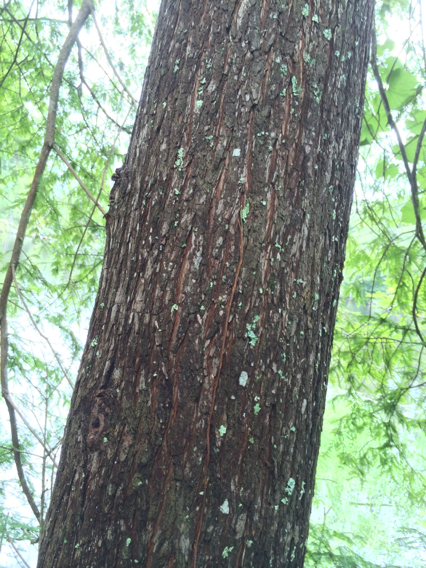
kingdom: Plantae
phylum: Tracheophyta
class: Pinopsida
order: Pinales
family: Cupressaceae
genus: Taxodium
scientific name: Taxodium distichum
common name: Bald cypress
